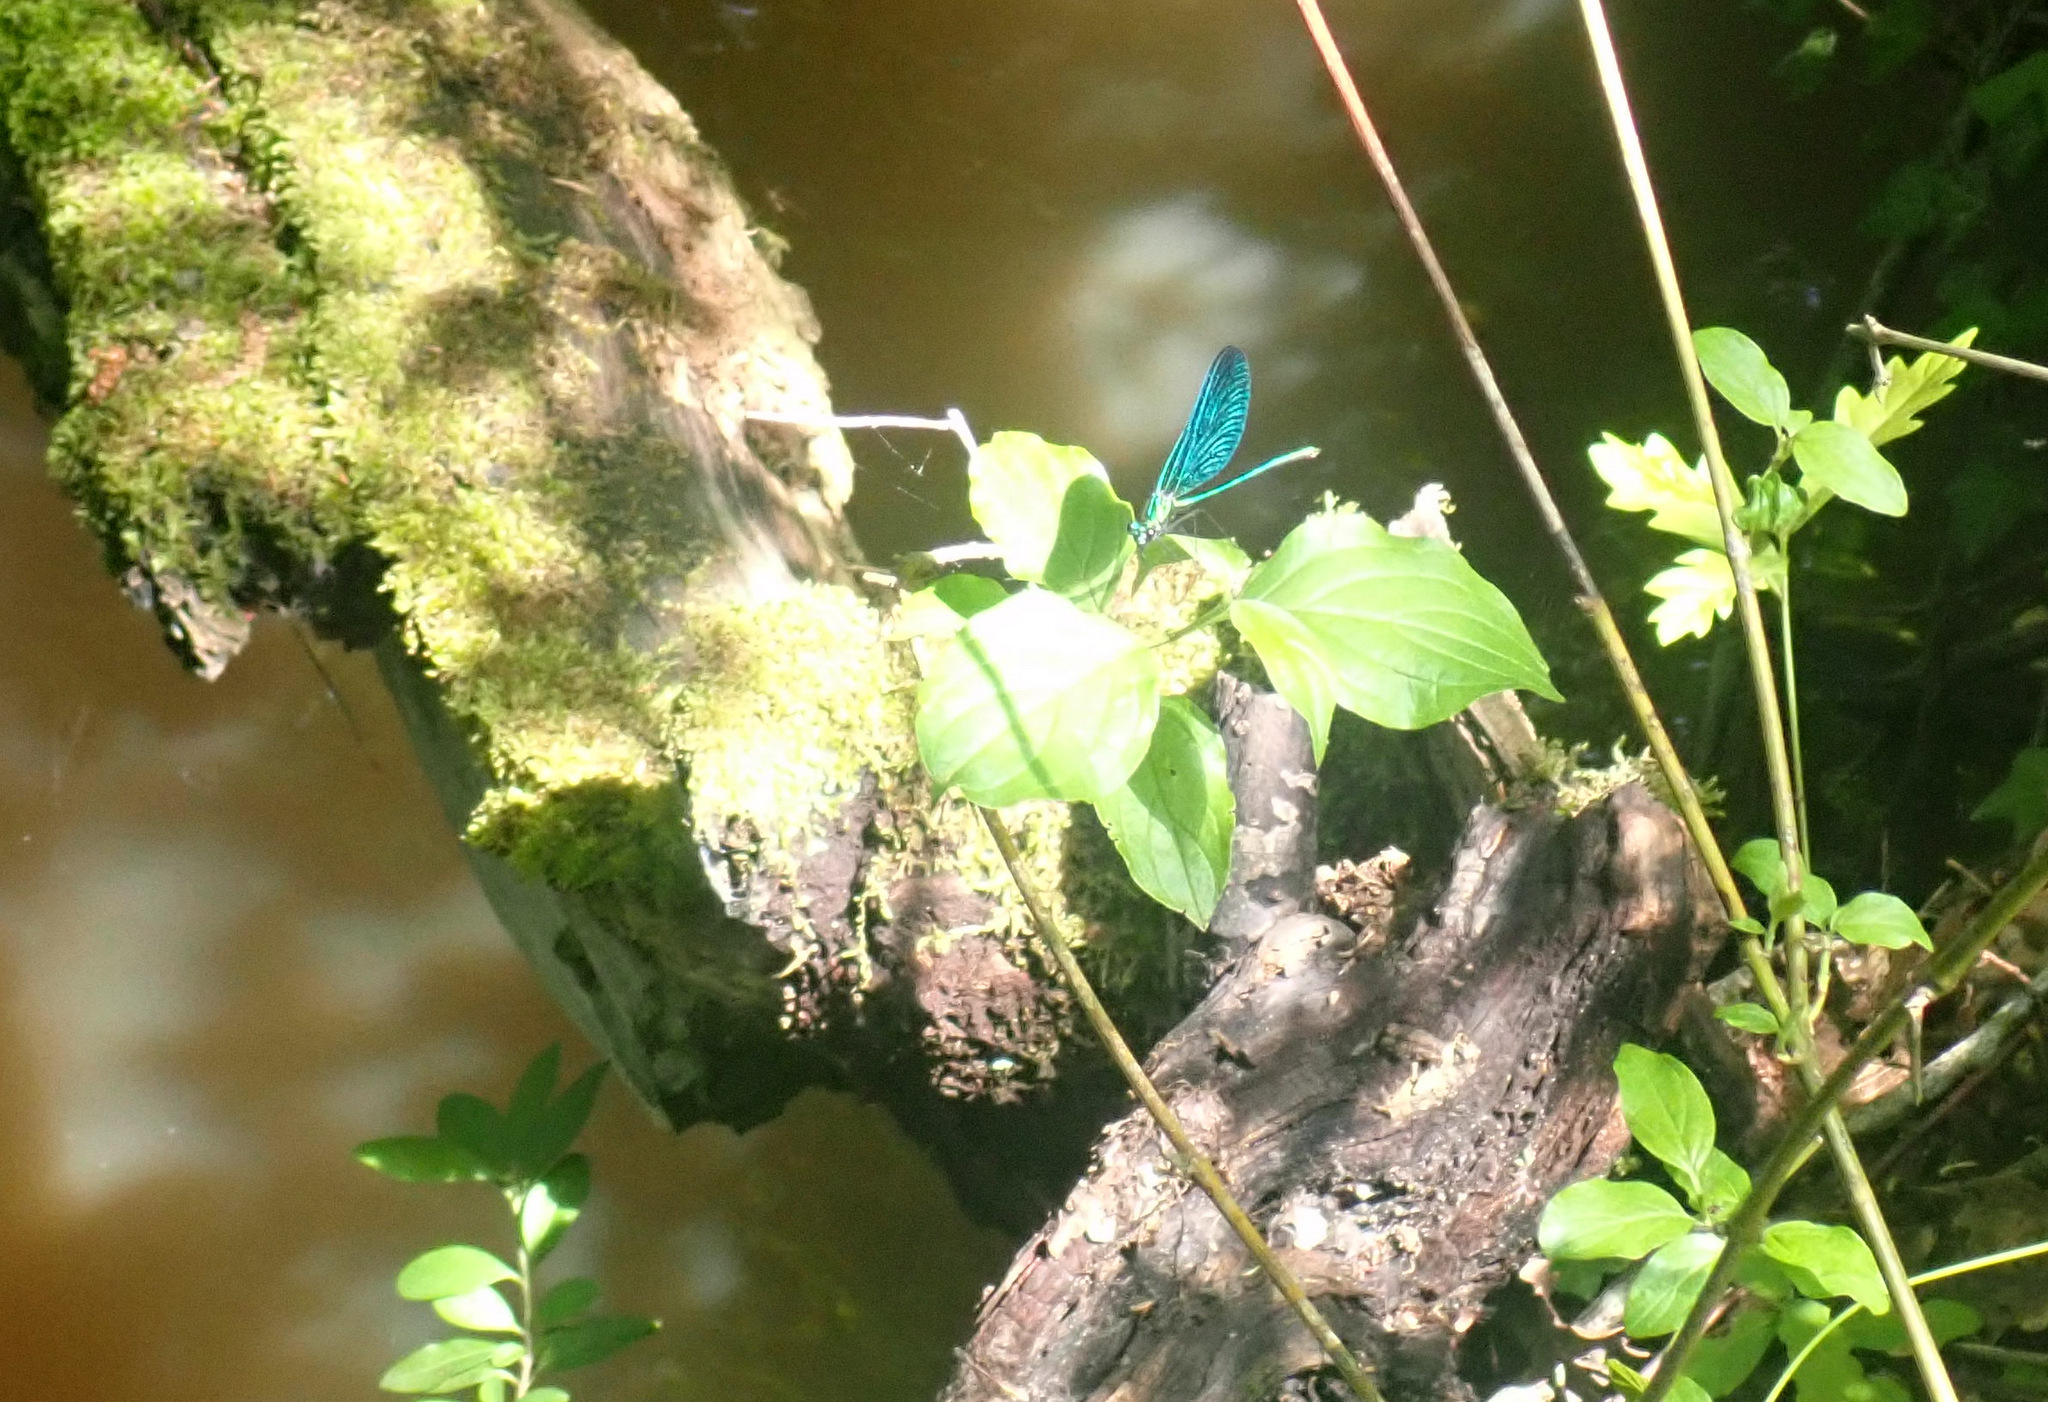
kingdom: Animalia
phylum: Arthropoda
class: Insecta
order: Odonata
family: Calopterygidae
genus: Calopteryx
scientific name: Calopteryx virgo
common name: Beautiful demoiselle
